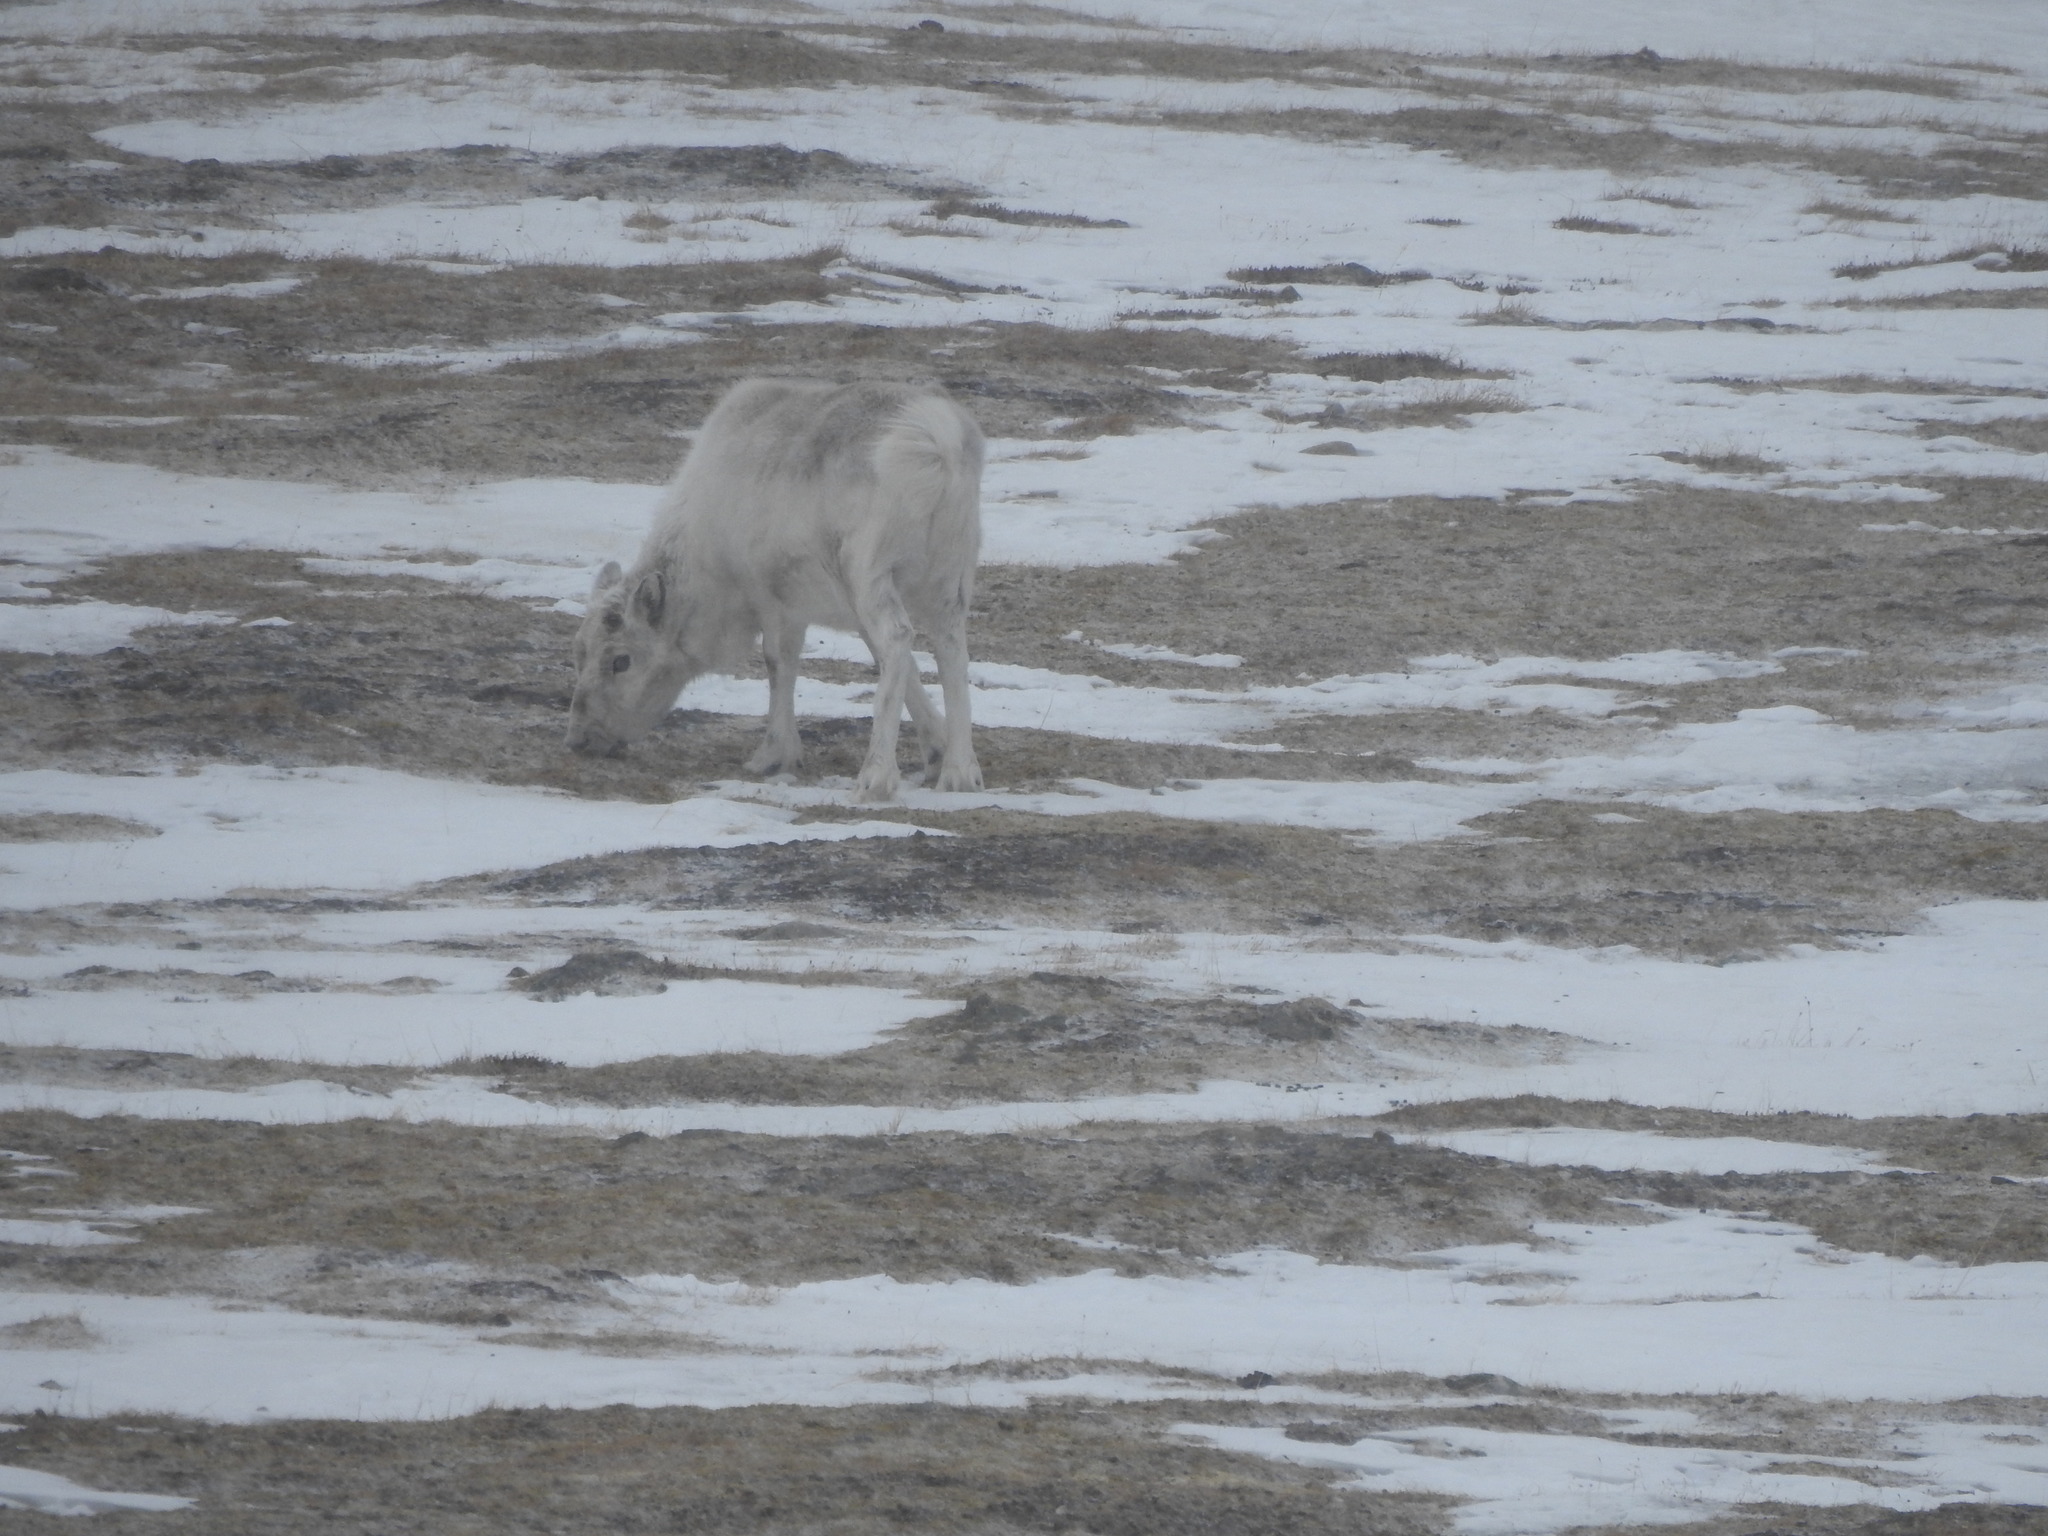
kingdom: Animalia
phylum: Chordata
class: Mammalia
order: Artiodactyla
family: Cervidae
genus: Rangifer
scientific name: Rangifer tarandus
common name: Reindeer
